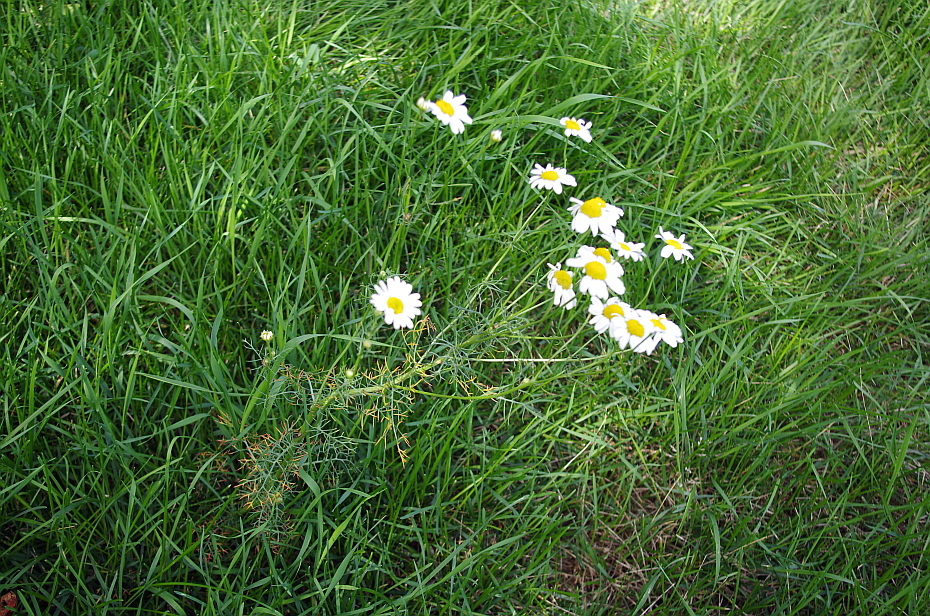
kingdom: Plantae
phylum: Tracheophyta
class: Magnoliopsida
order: Asterales
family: Asteraceae
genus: Tripleurospermum
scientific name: Tripleurospermum inodorum
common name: Scentless mayweed
